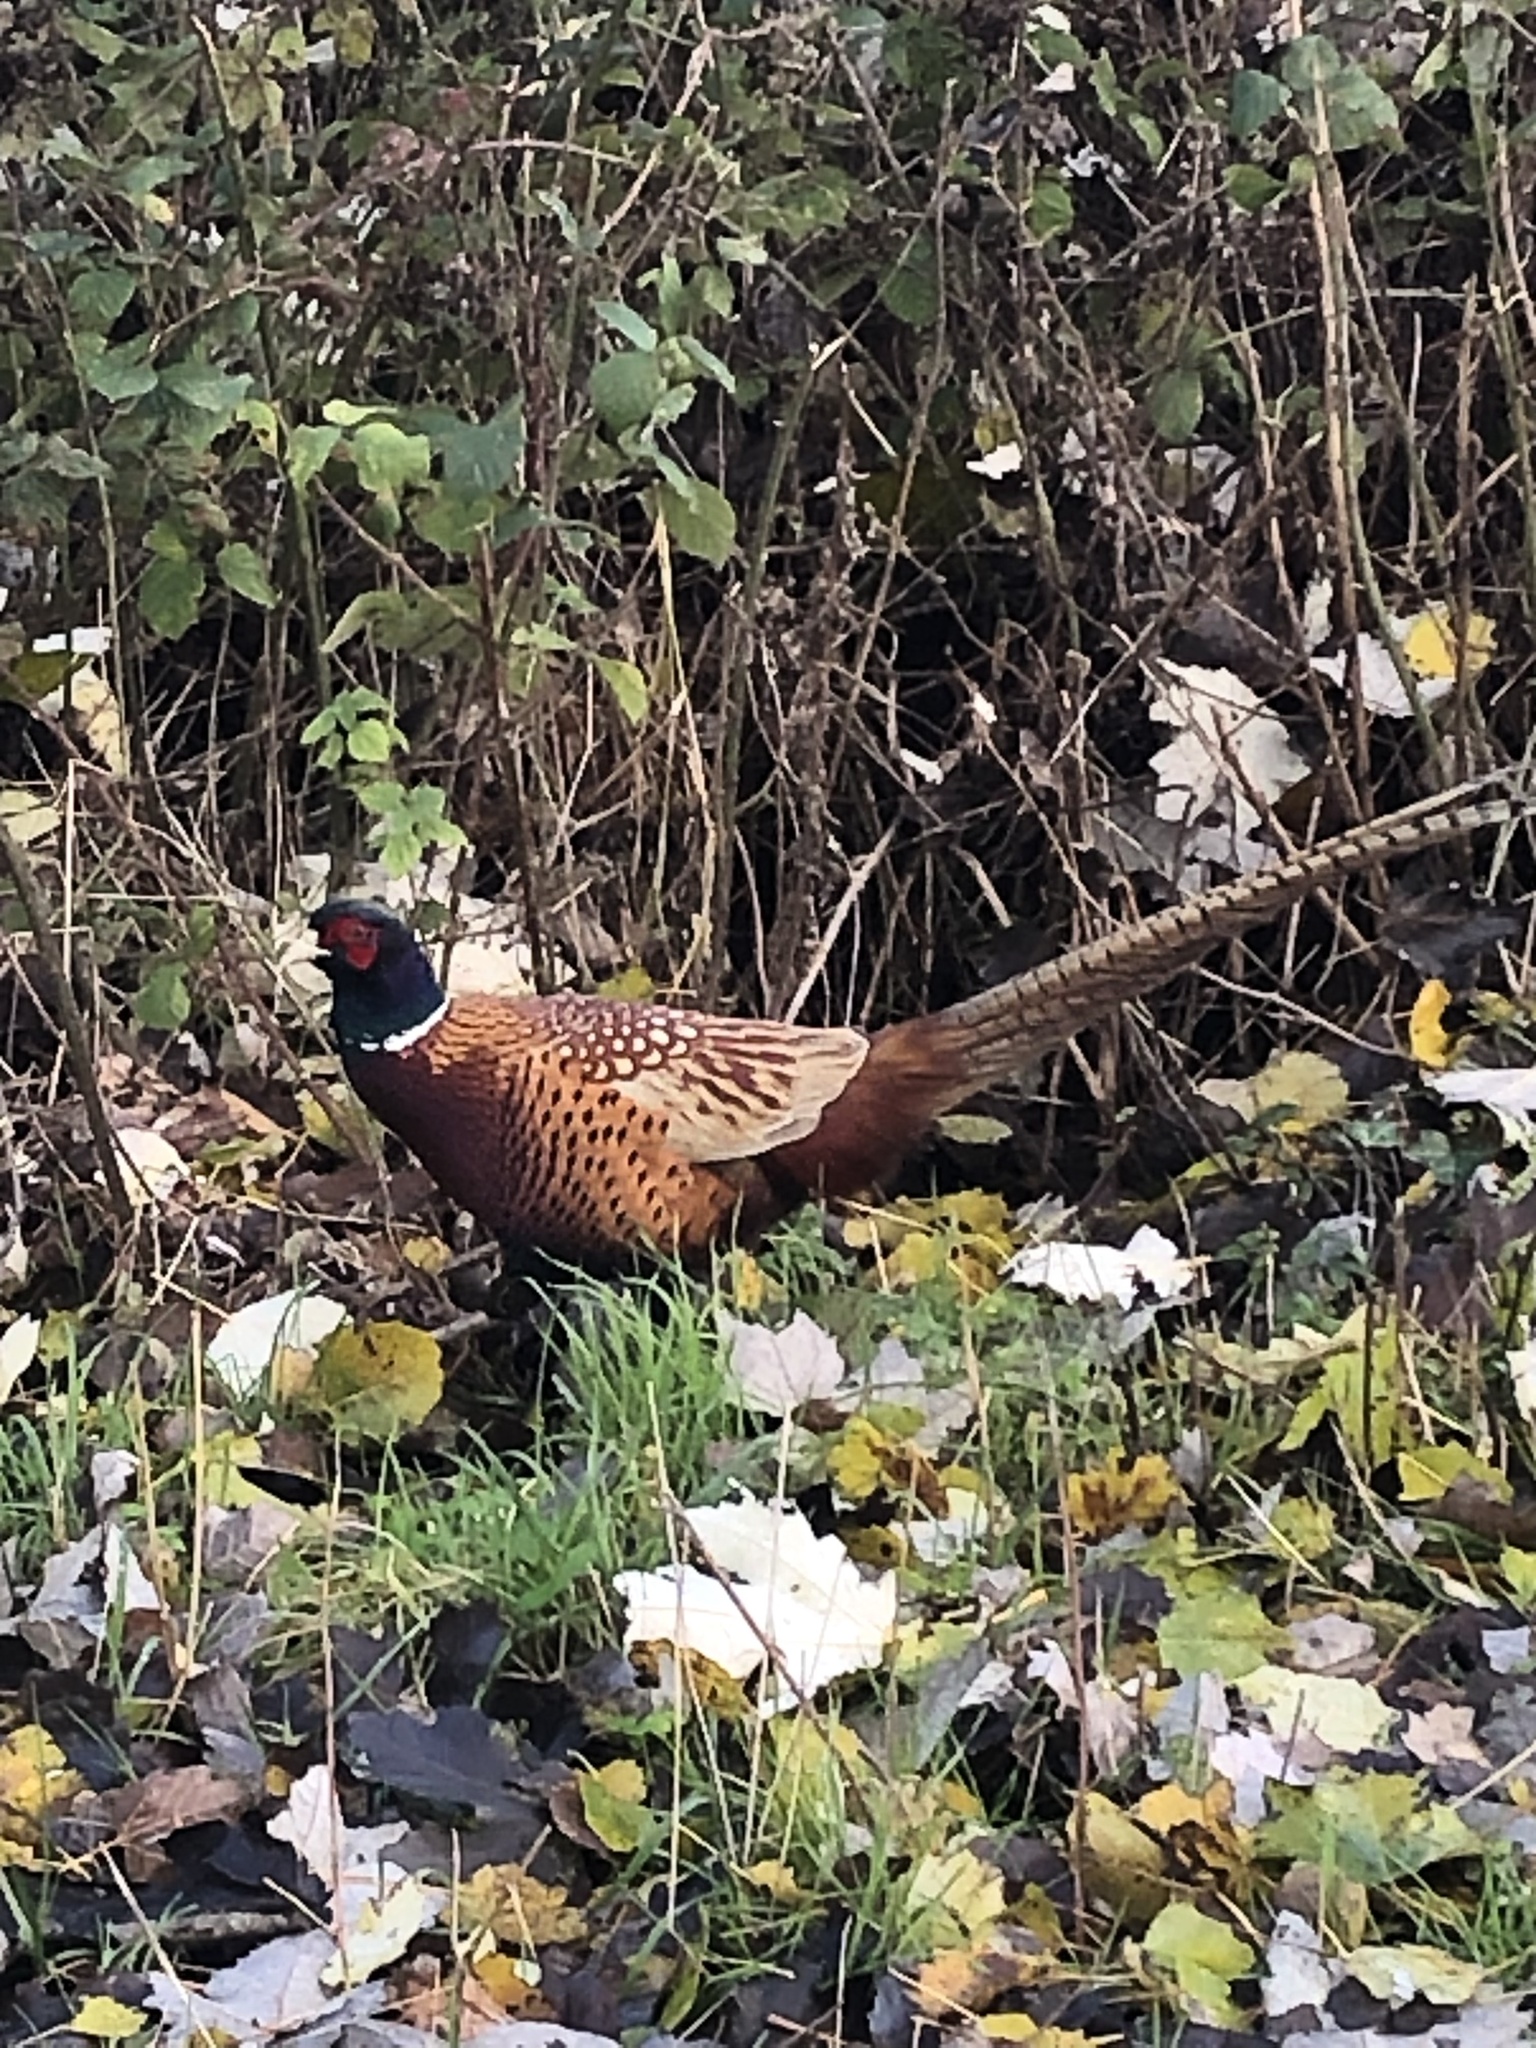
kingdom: Animalia
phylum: Chordata
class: Aves
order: Galliformes
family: Phasianidae
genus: Phasianus
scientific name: Phasianus colchicus
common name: Common pheasant
